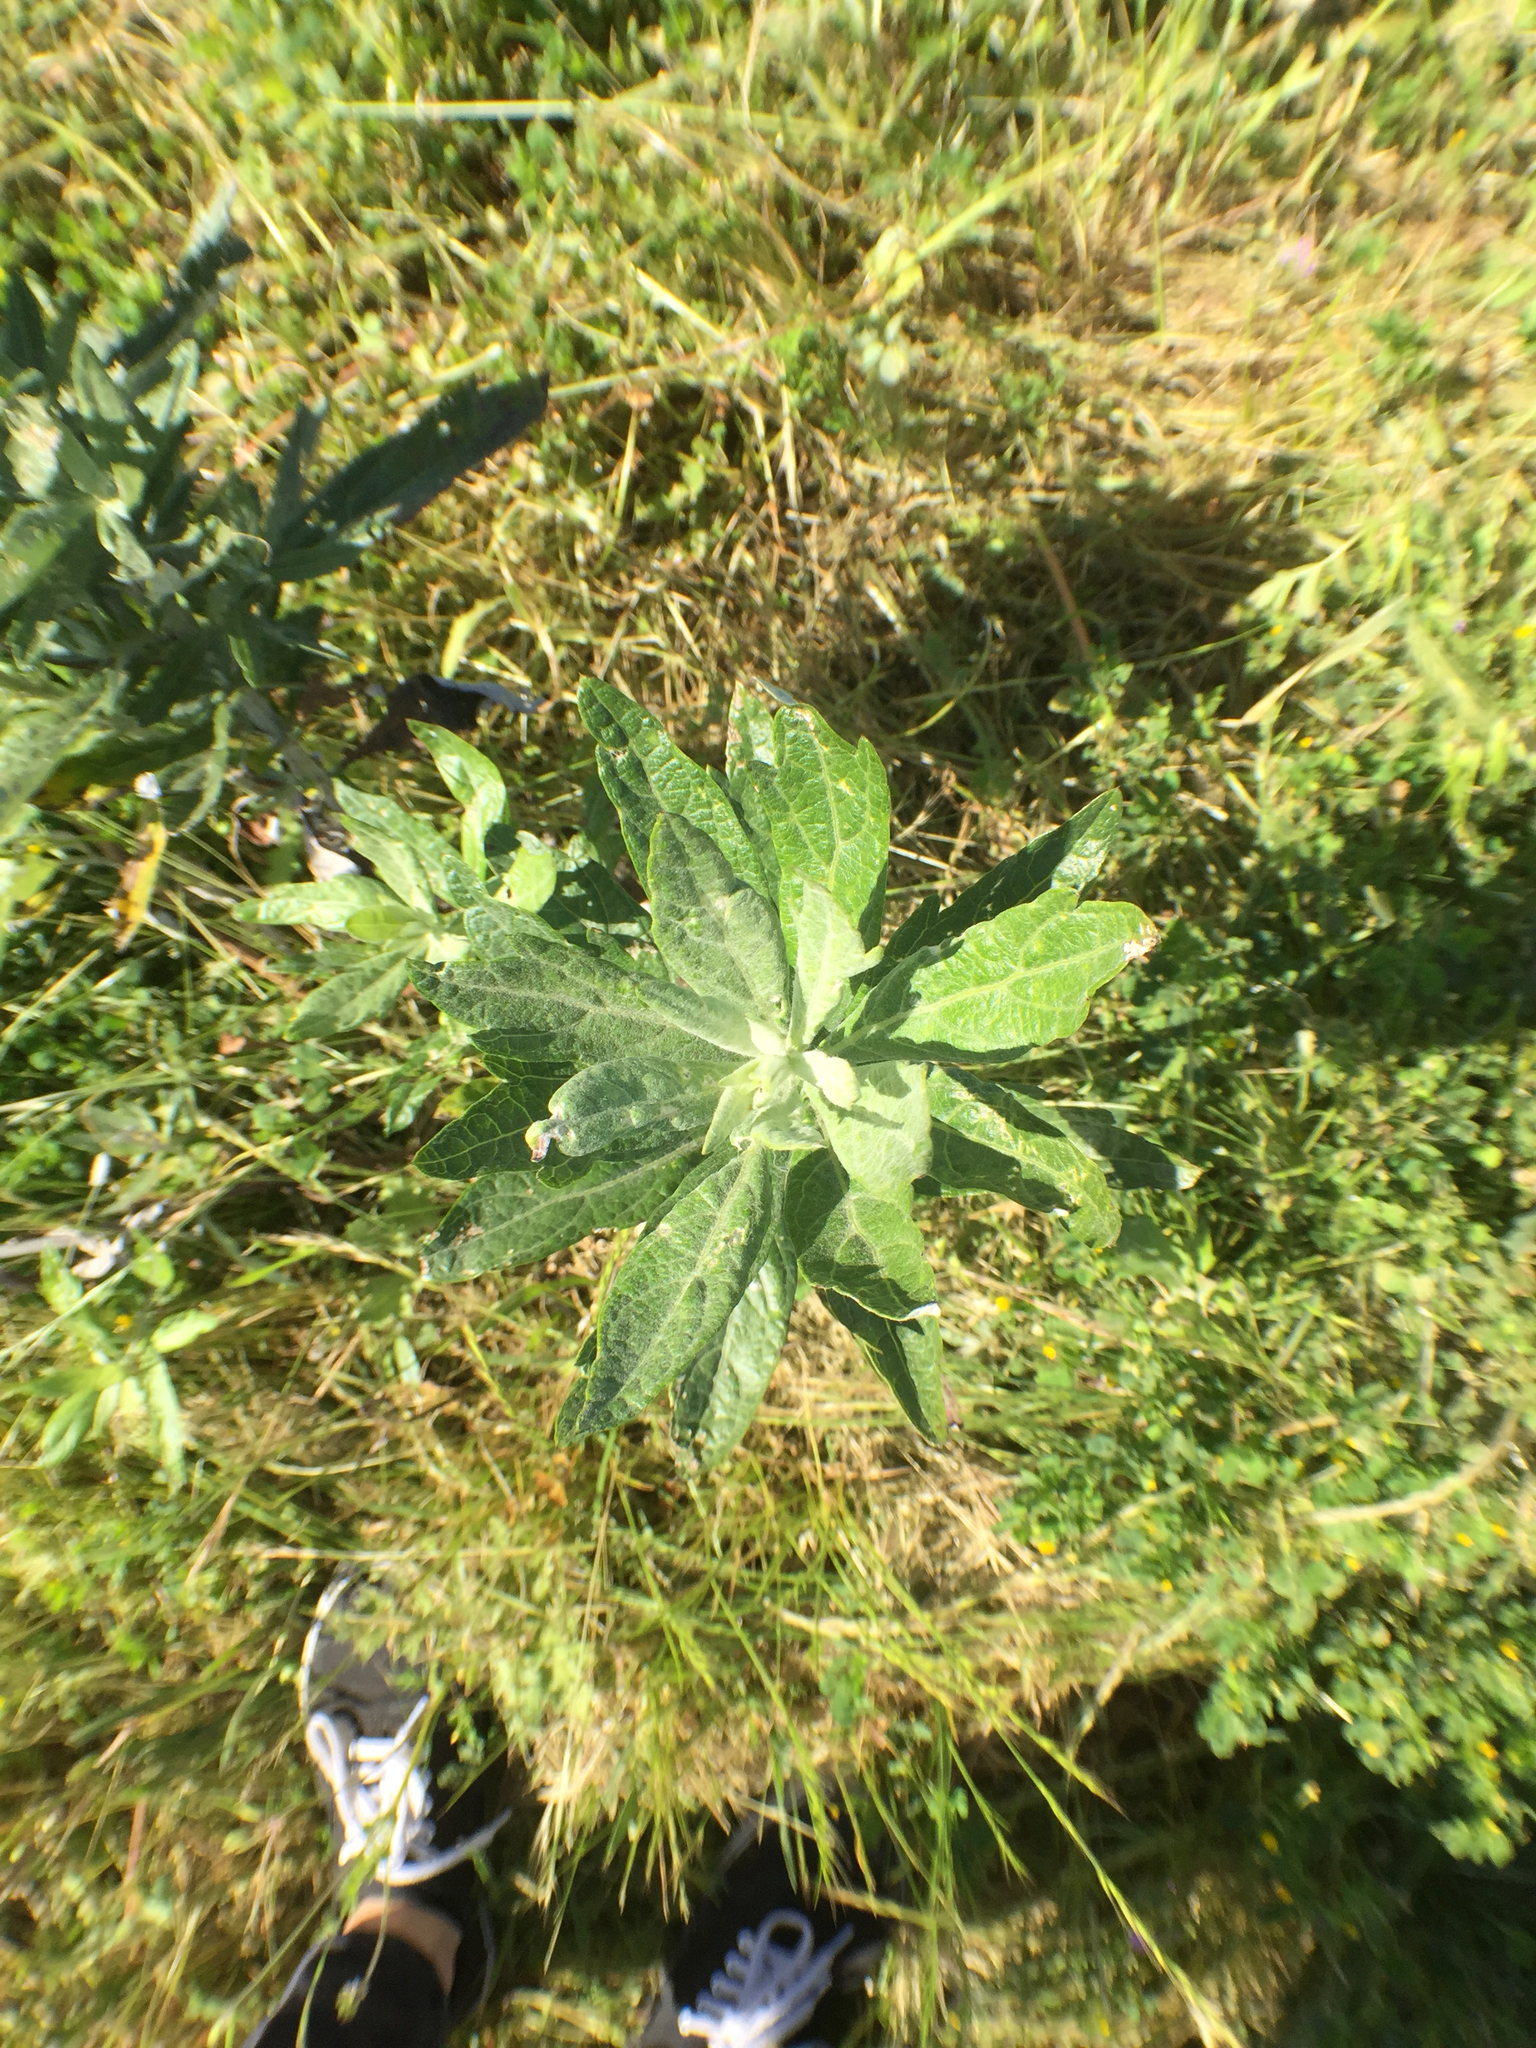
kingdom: Plantae
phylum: Tracheophyta
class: Magnoliopsida
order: Asterales
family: Asteraceae
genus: Artemisia
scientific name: Artemisia douglasiana
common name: Northwest mugwort
